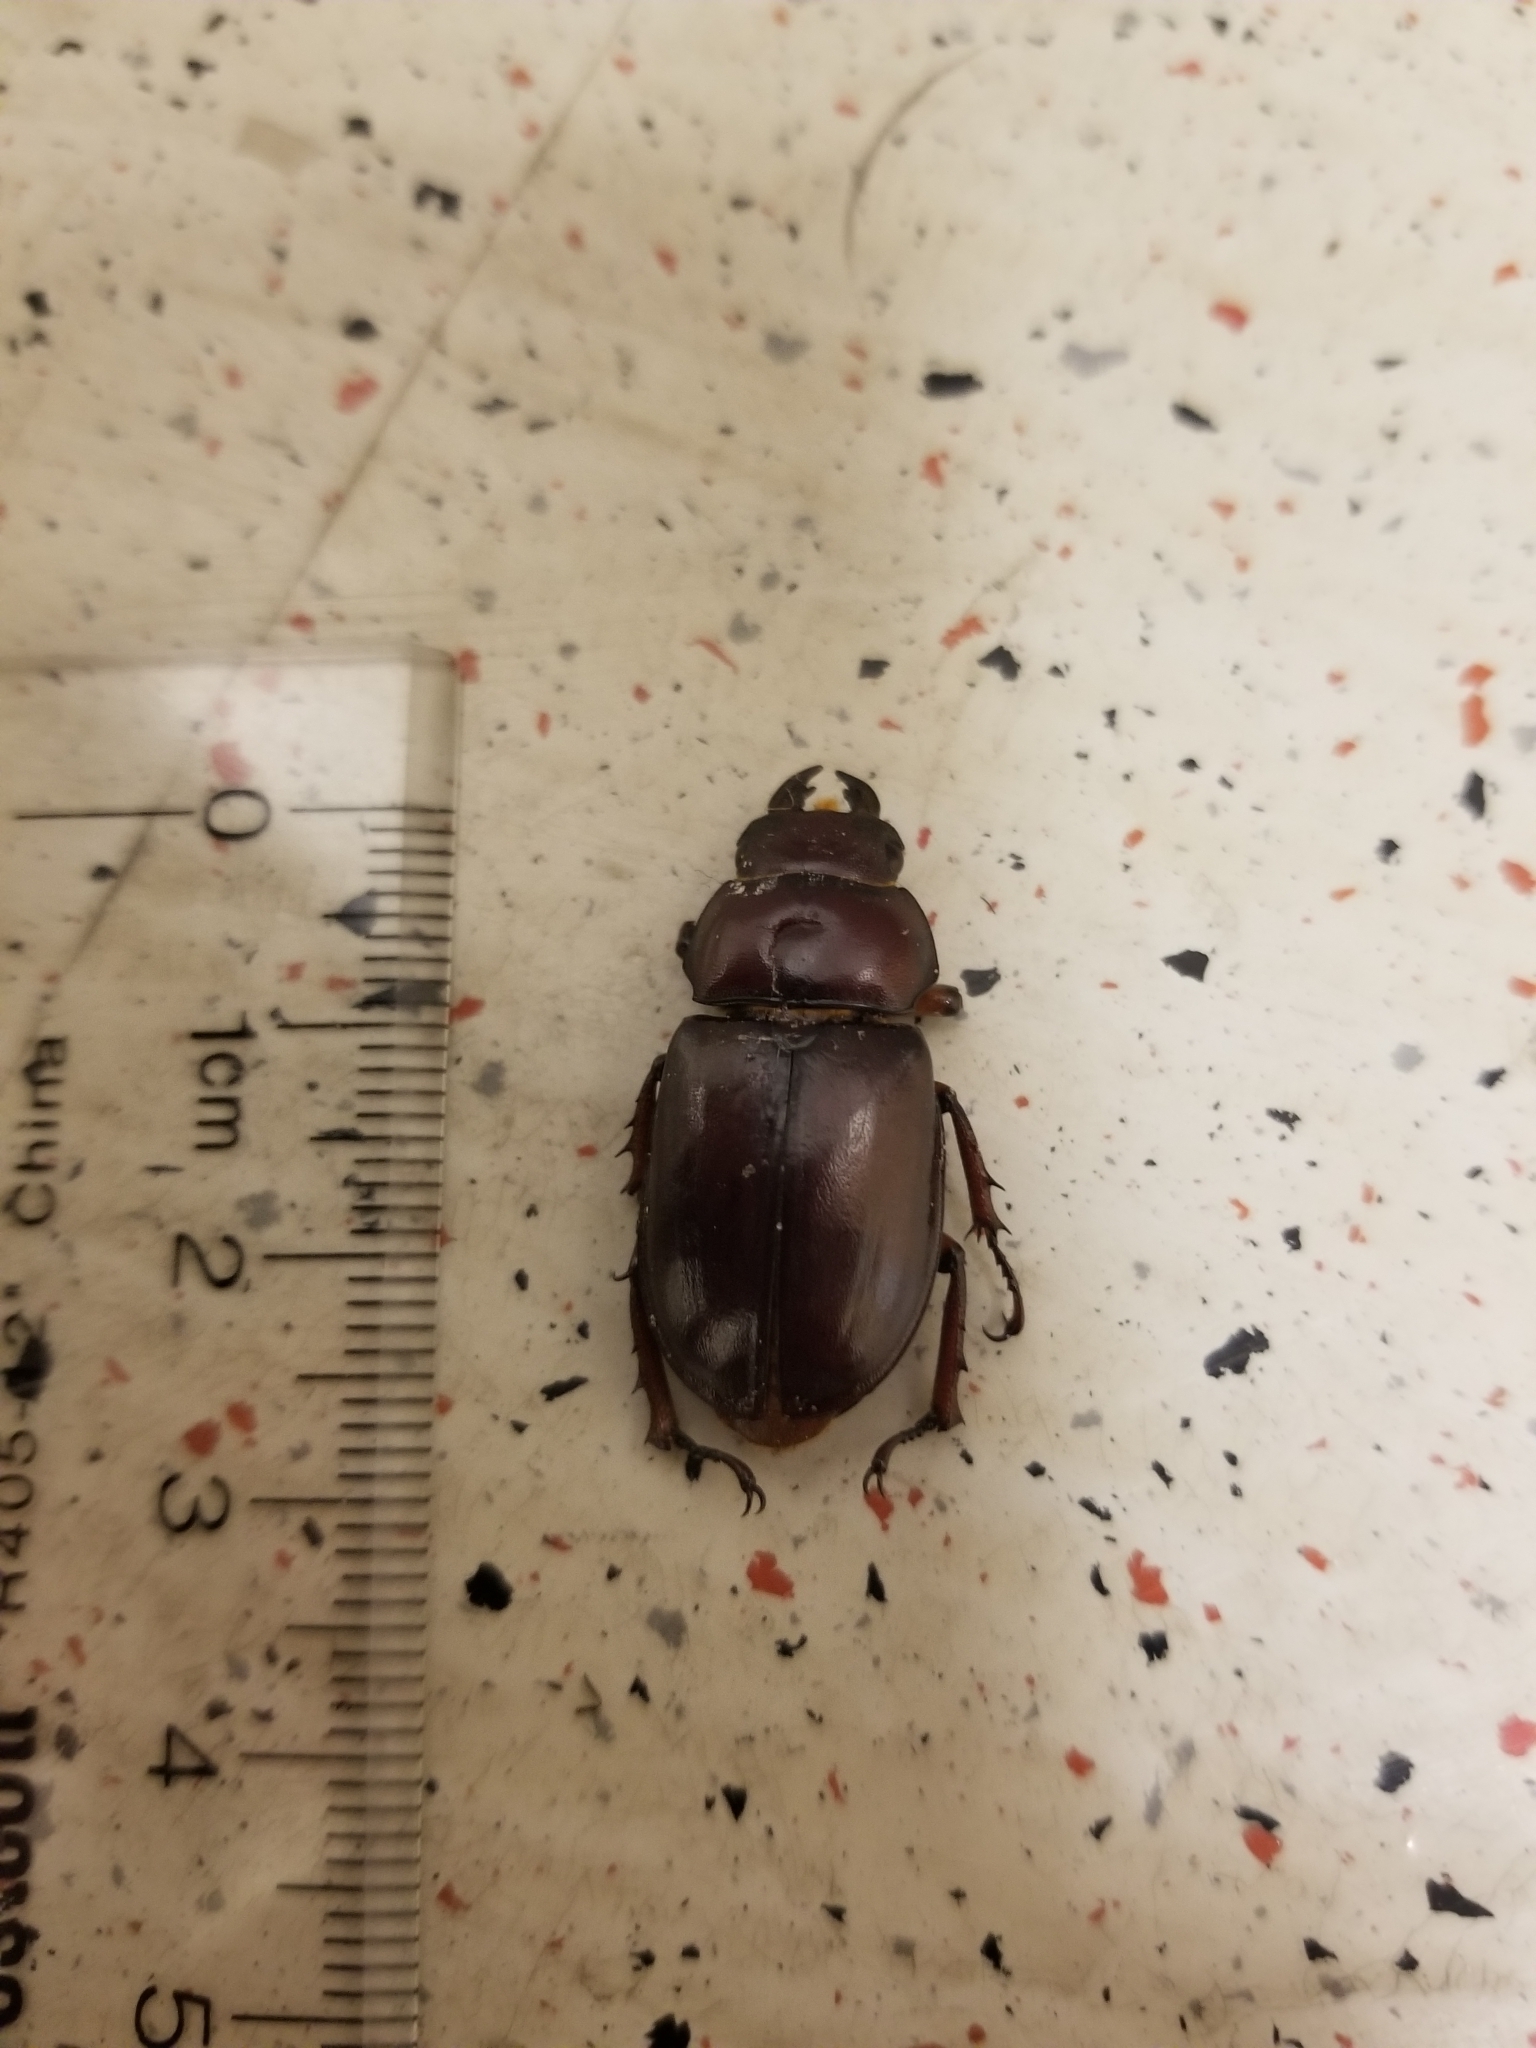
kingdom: Animalia
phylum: Arthropoda
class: Insecta
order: Coleoptera
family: Lucanidae
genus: Lucanus
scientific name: Lucanus capreolus
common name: Stag beetle
